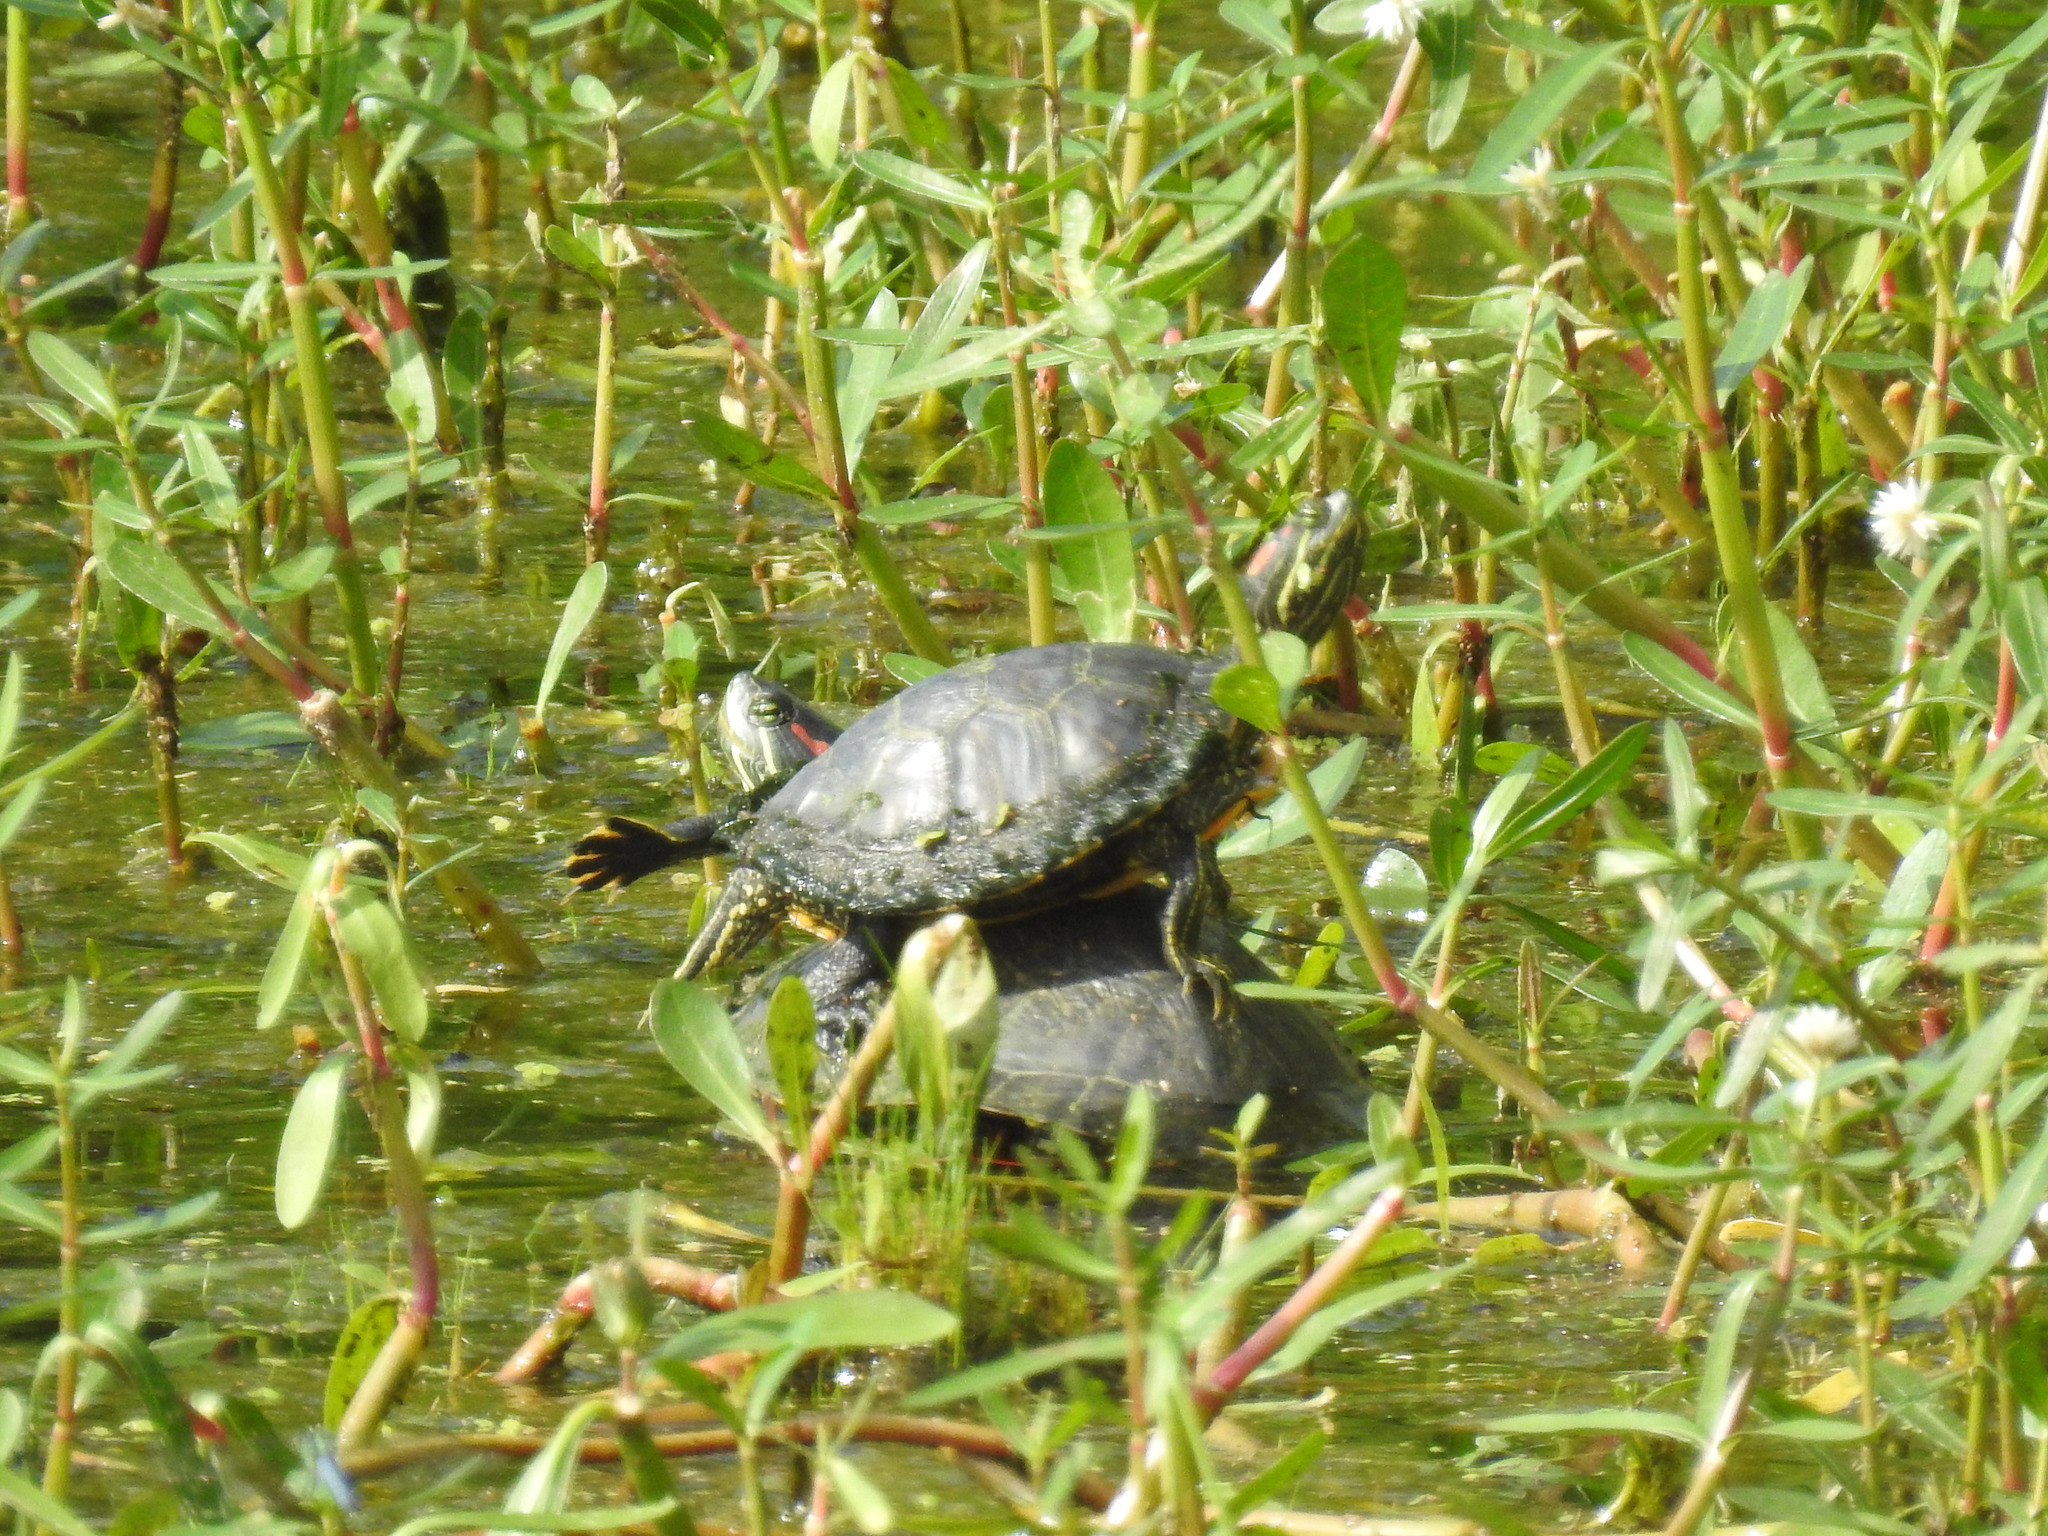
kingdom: Animalia
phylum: Chordata
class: Testudines
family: Emydidae
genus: Trachemys
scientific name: Trachemys scripta
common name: Slider
